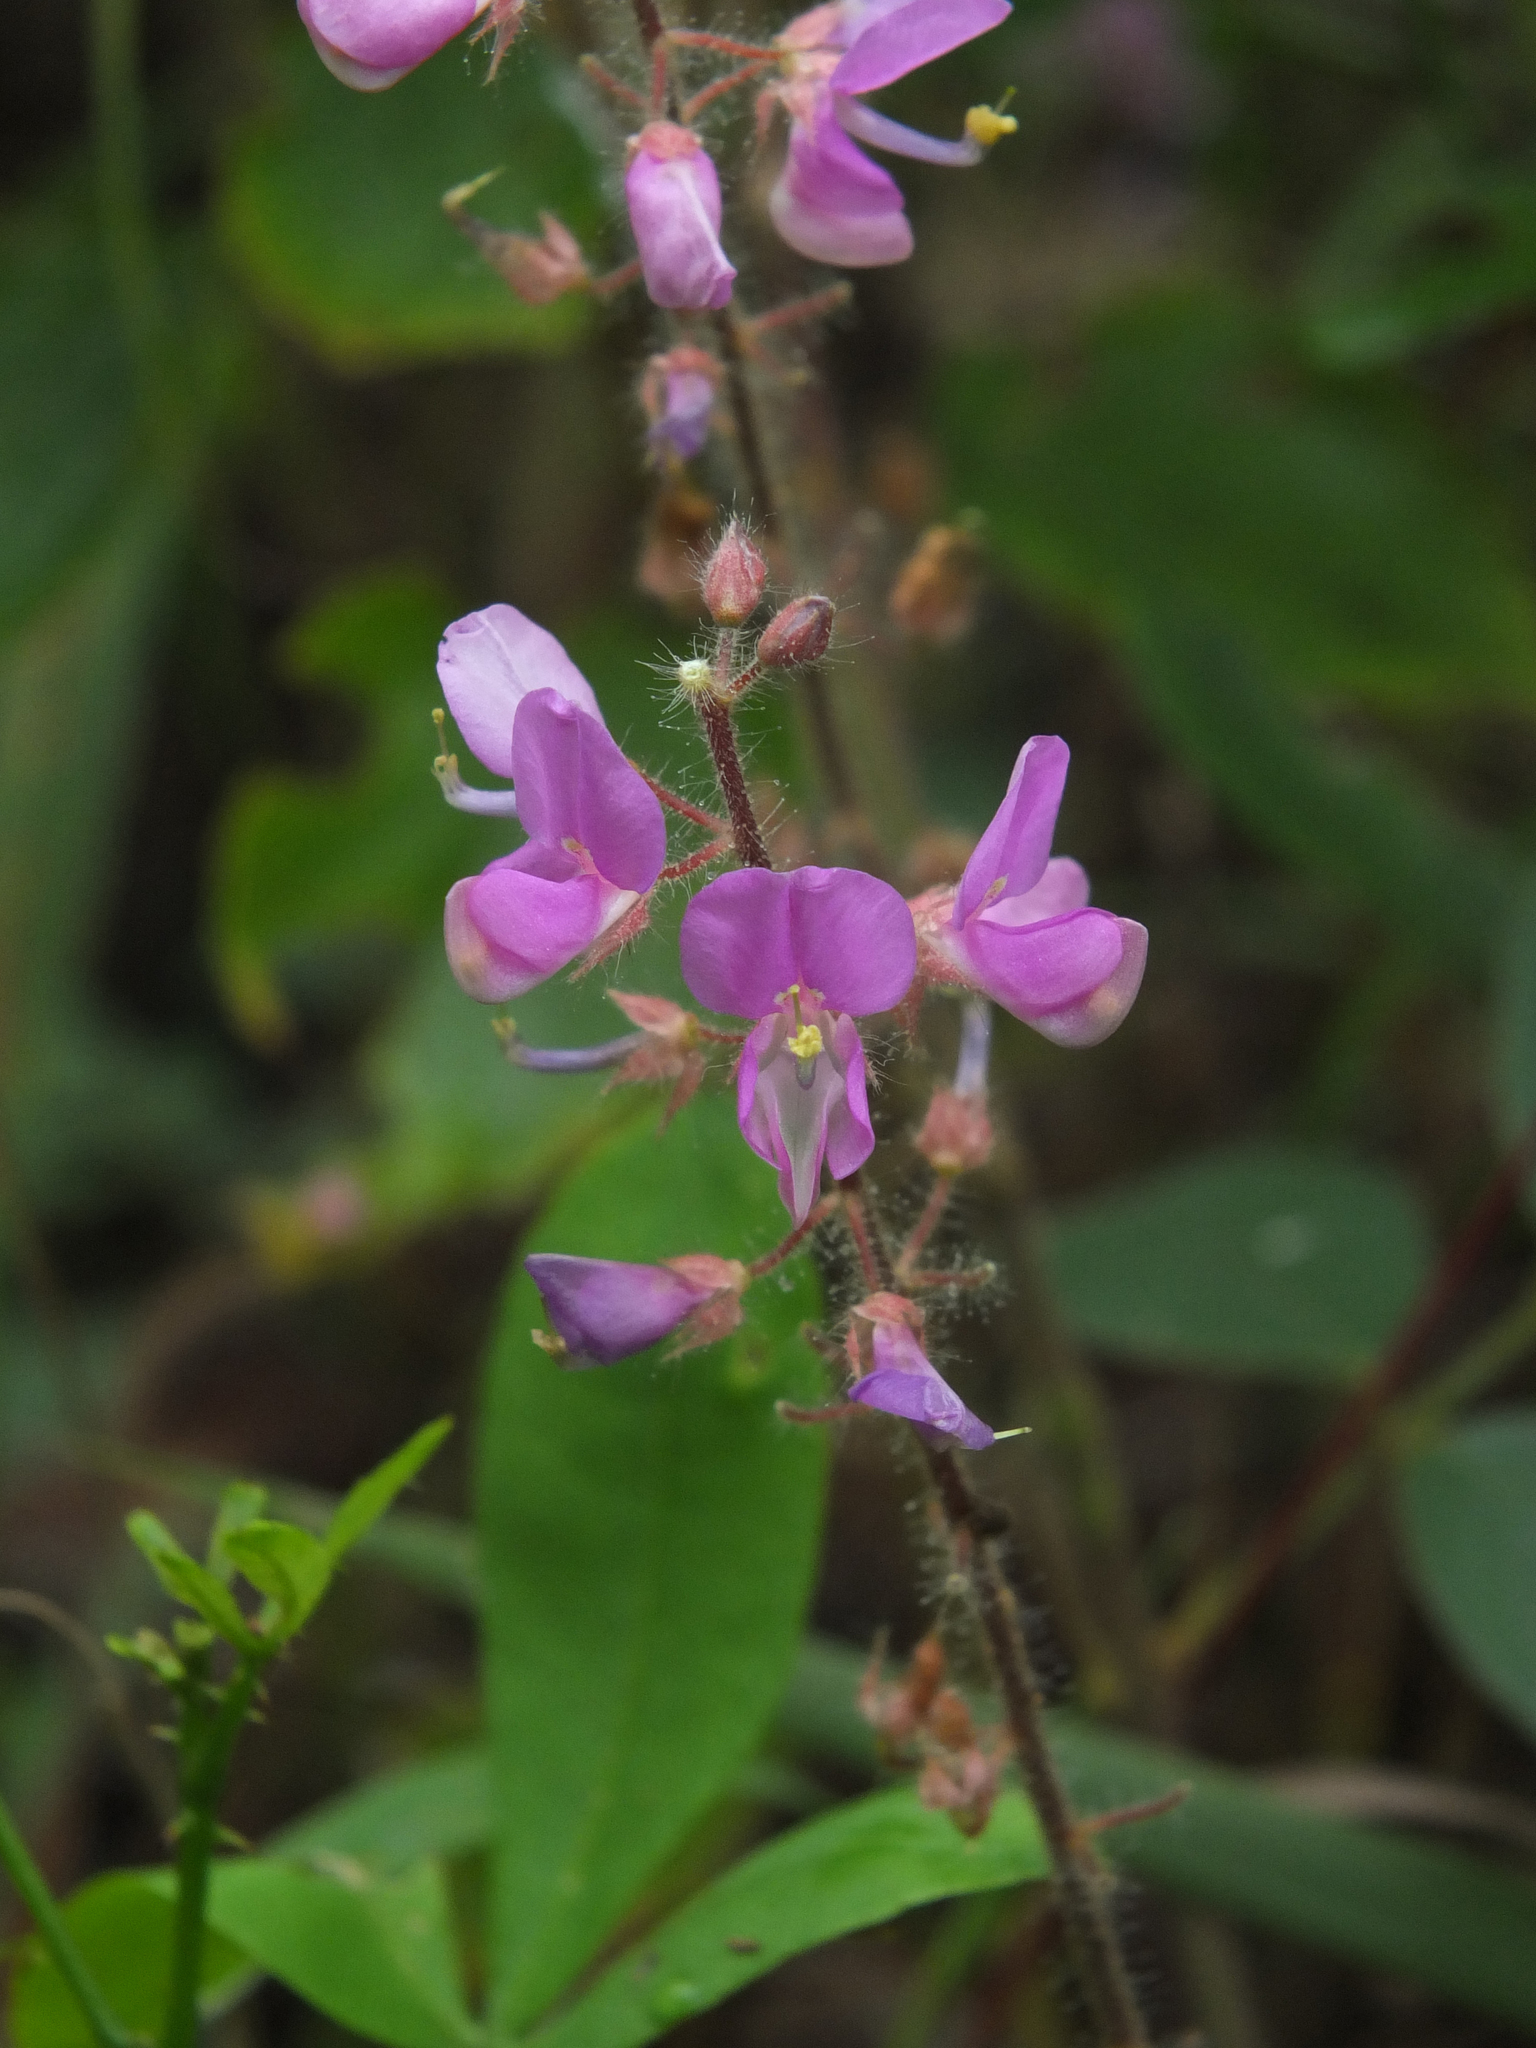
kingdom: Plantae
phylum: Tracheophyta
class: Magnoliopsida
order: Fabales
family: Fabaceae
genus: Uraria
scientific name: Uraria rufescens
